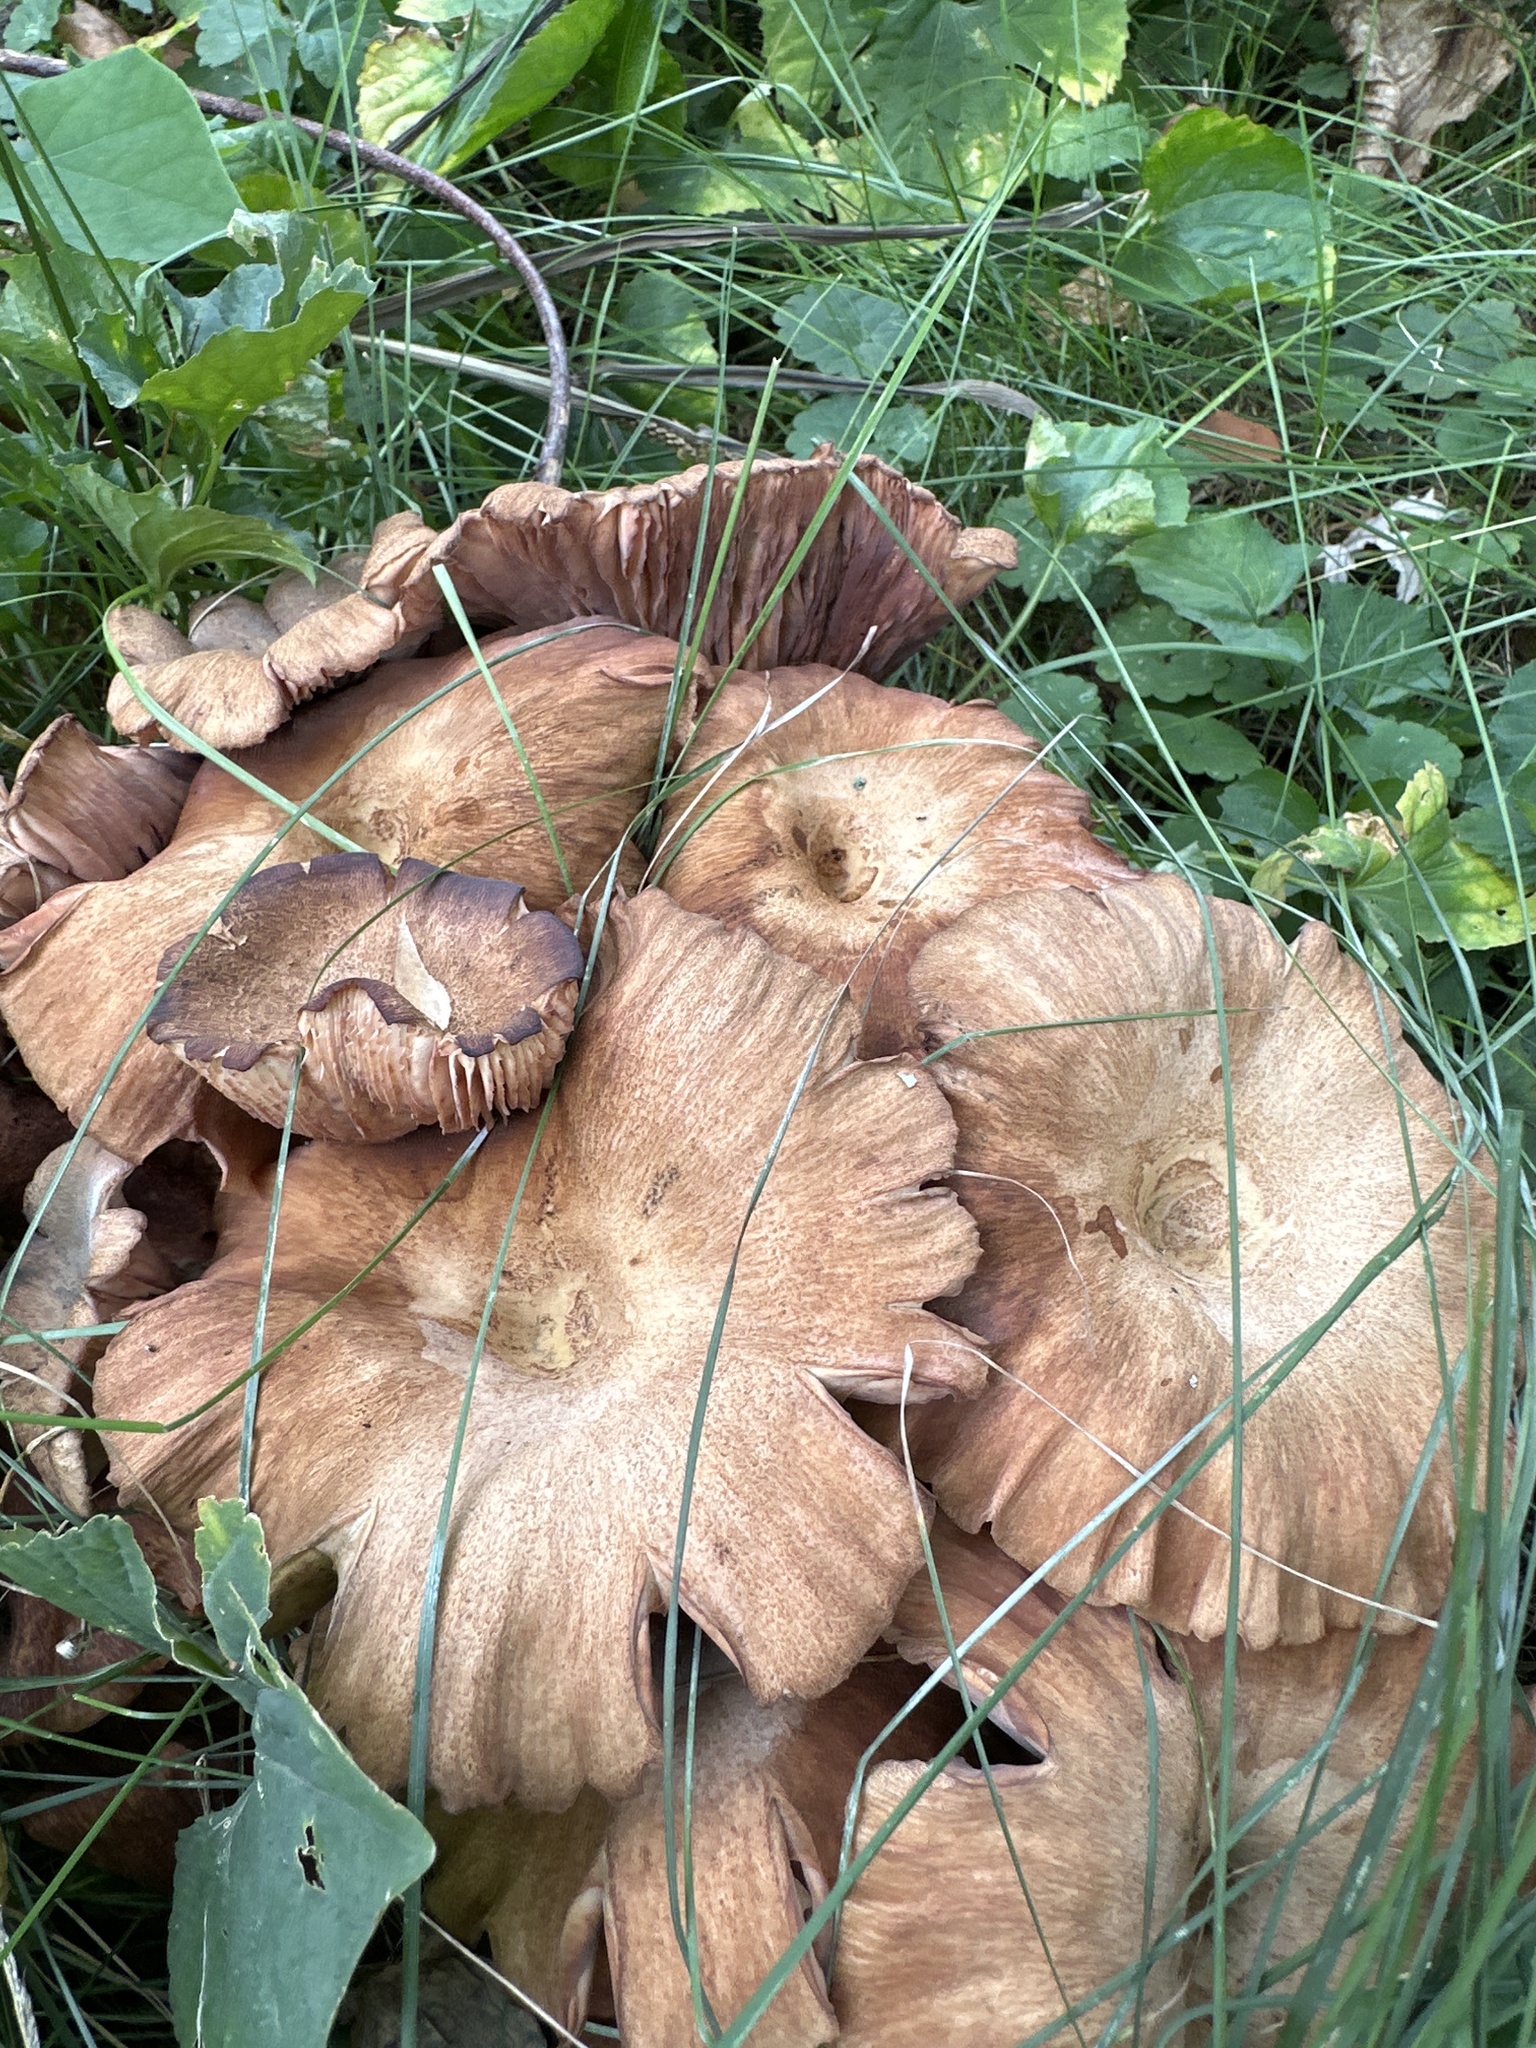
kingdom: Fungi
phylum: Basidiomycota
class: Agaricomycetes
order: Agaricales
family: Physalacriaceae
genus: Desarmillaria
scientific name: Desarmillaria caespitosa
